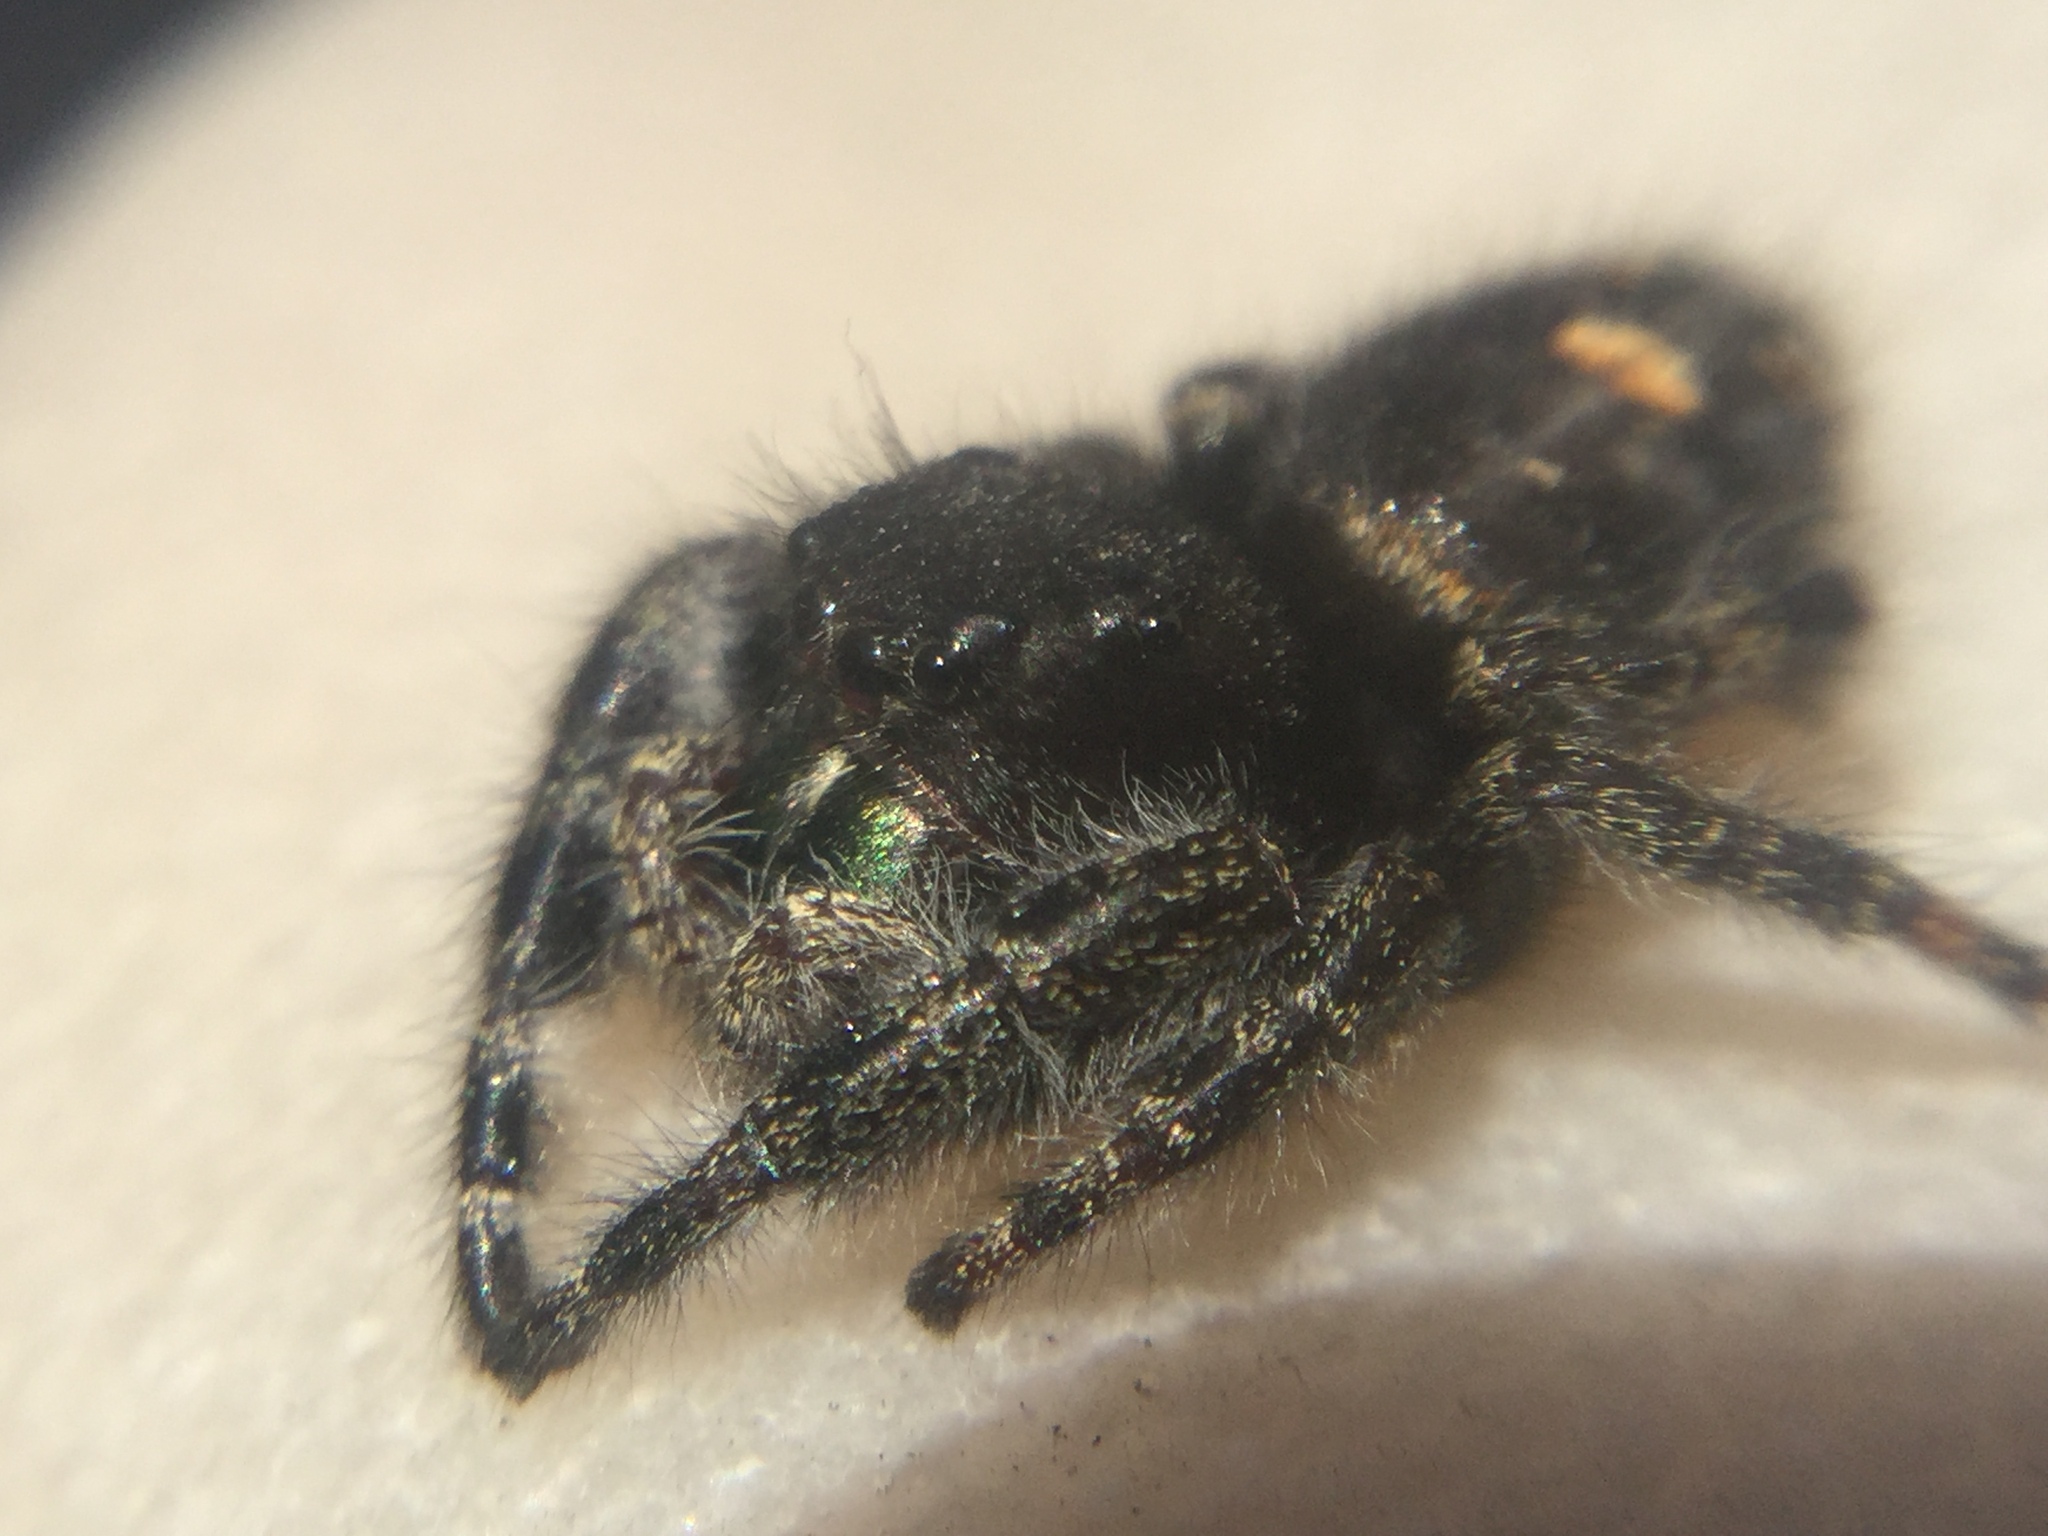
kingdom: Animalia
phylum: Arthropoda
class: Arachnida
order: Araneae
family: Salticidae
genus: Phidippus
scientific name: Phidippus audax
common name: Bold jumper
